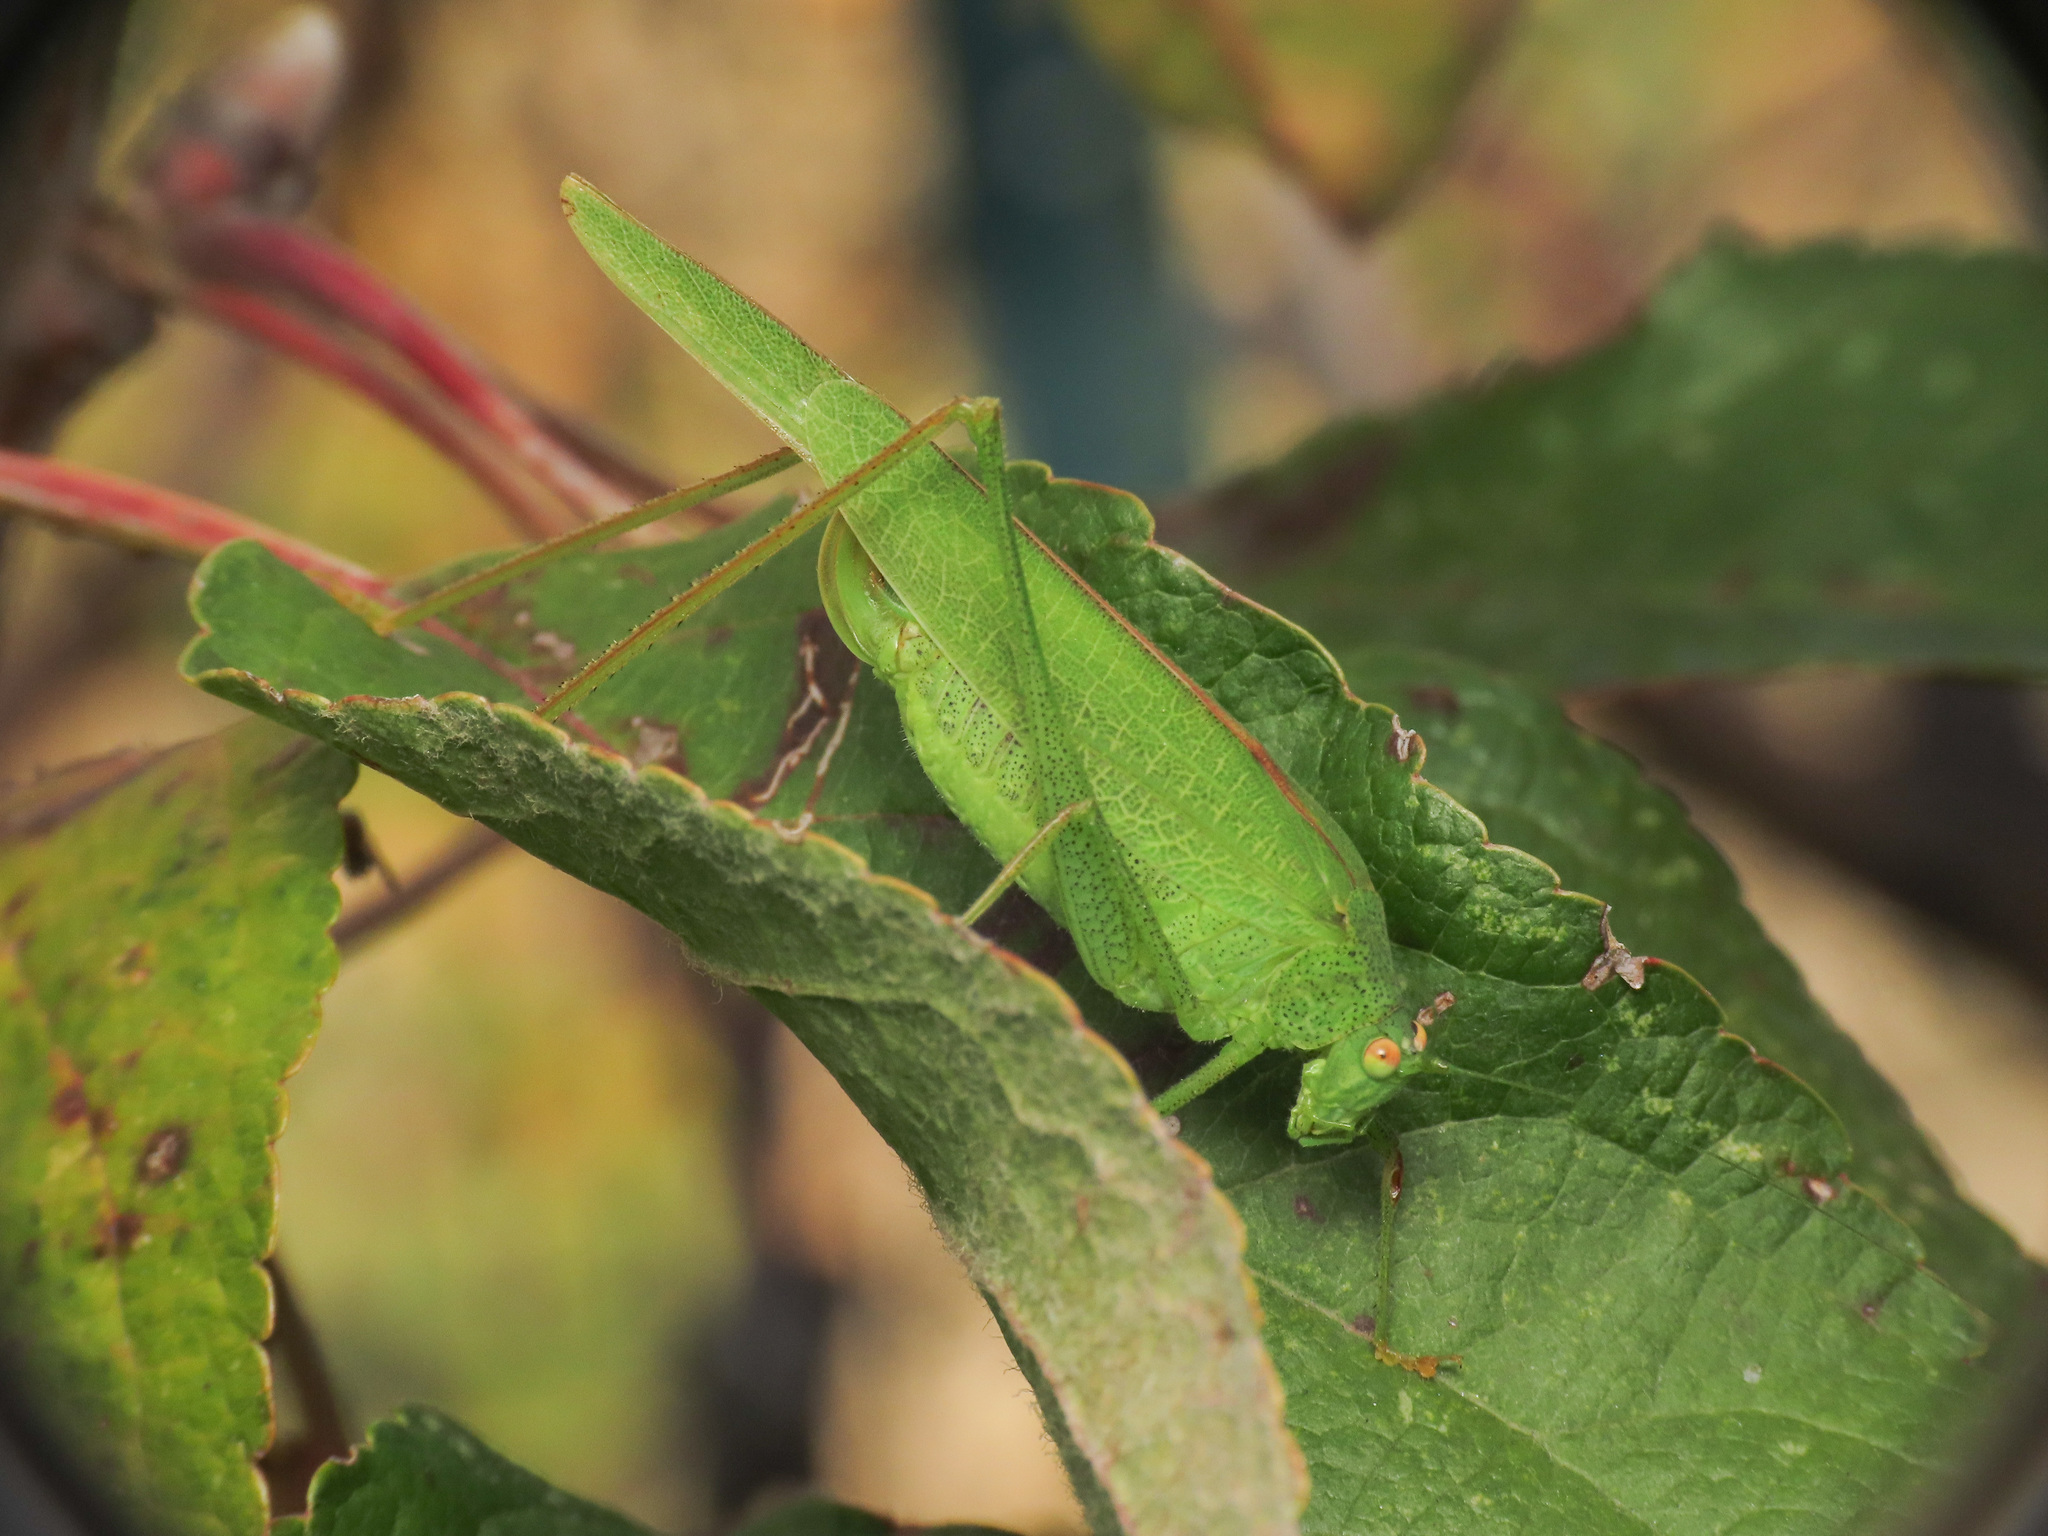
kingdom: Animalia
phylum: Arthropoda
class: Insecta
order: Orthoptera
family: Tettigoniidae
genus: Phaneroptera
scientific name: Phaneroptera nana
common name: Southern sickle bush-cricket
